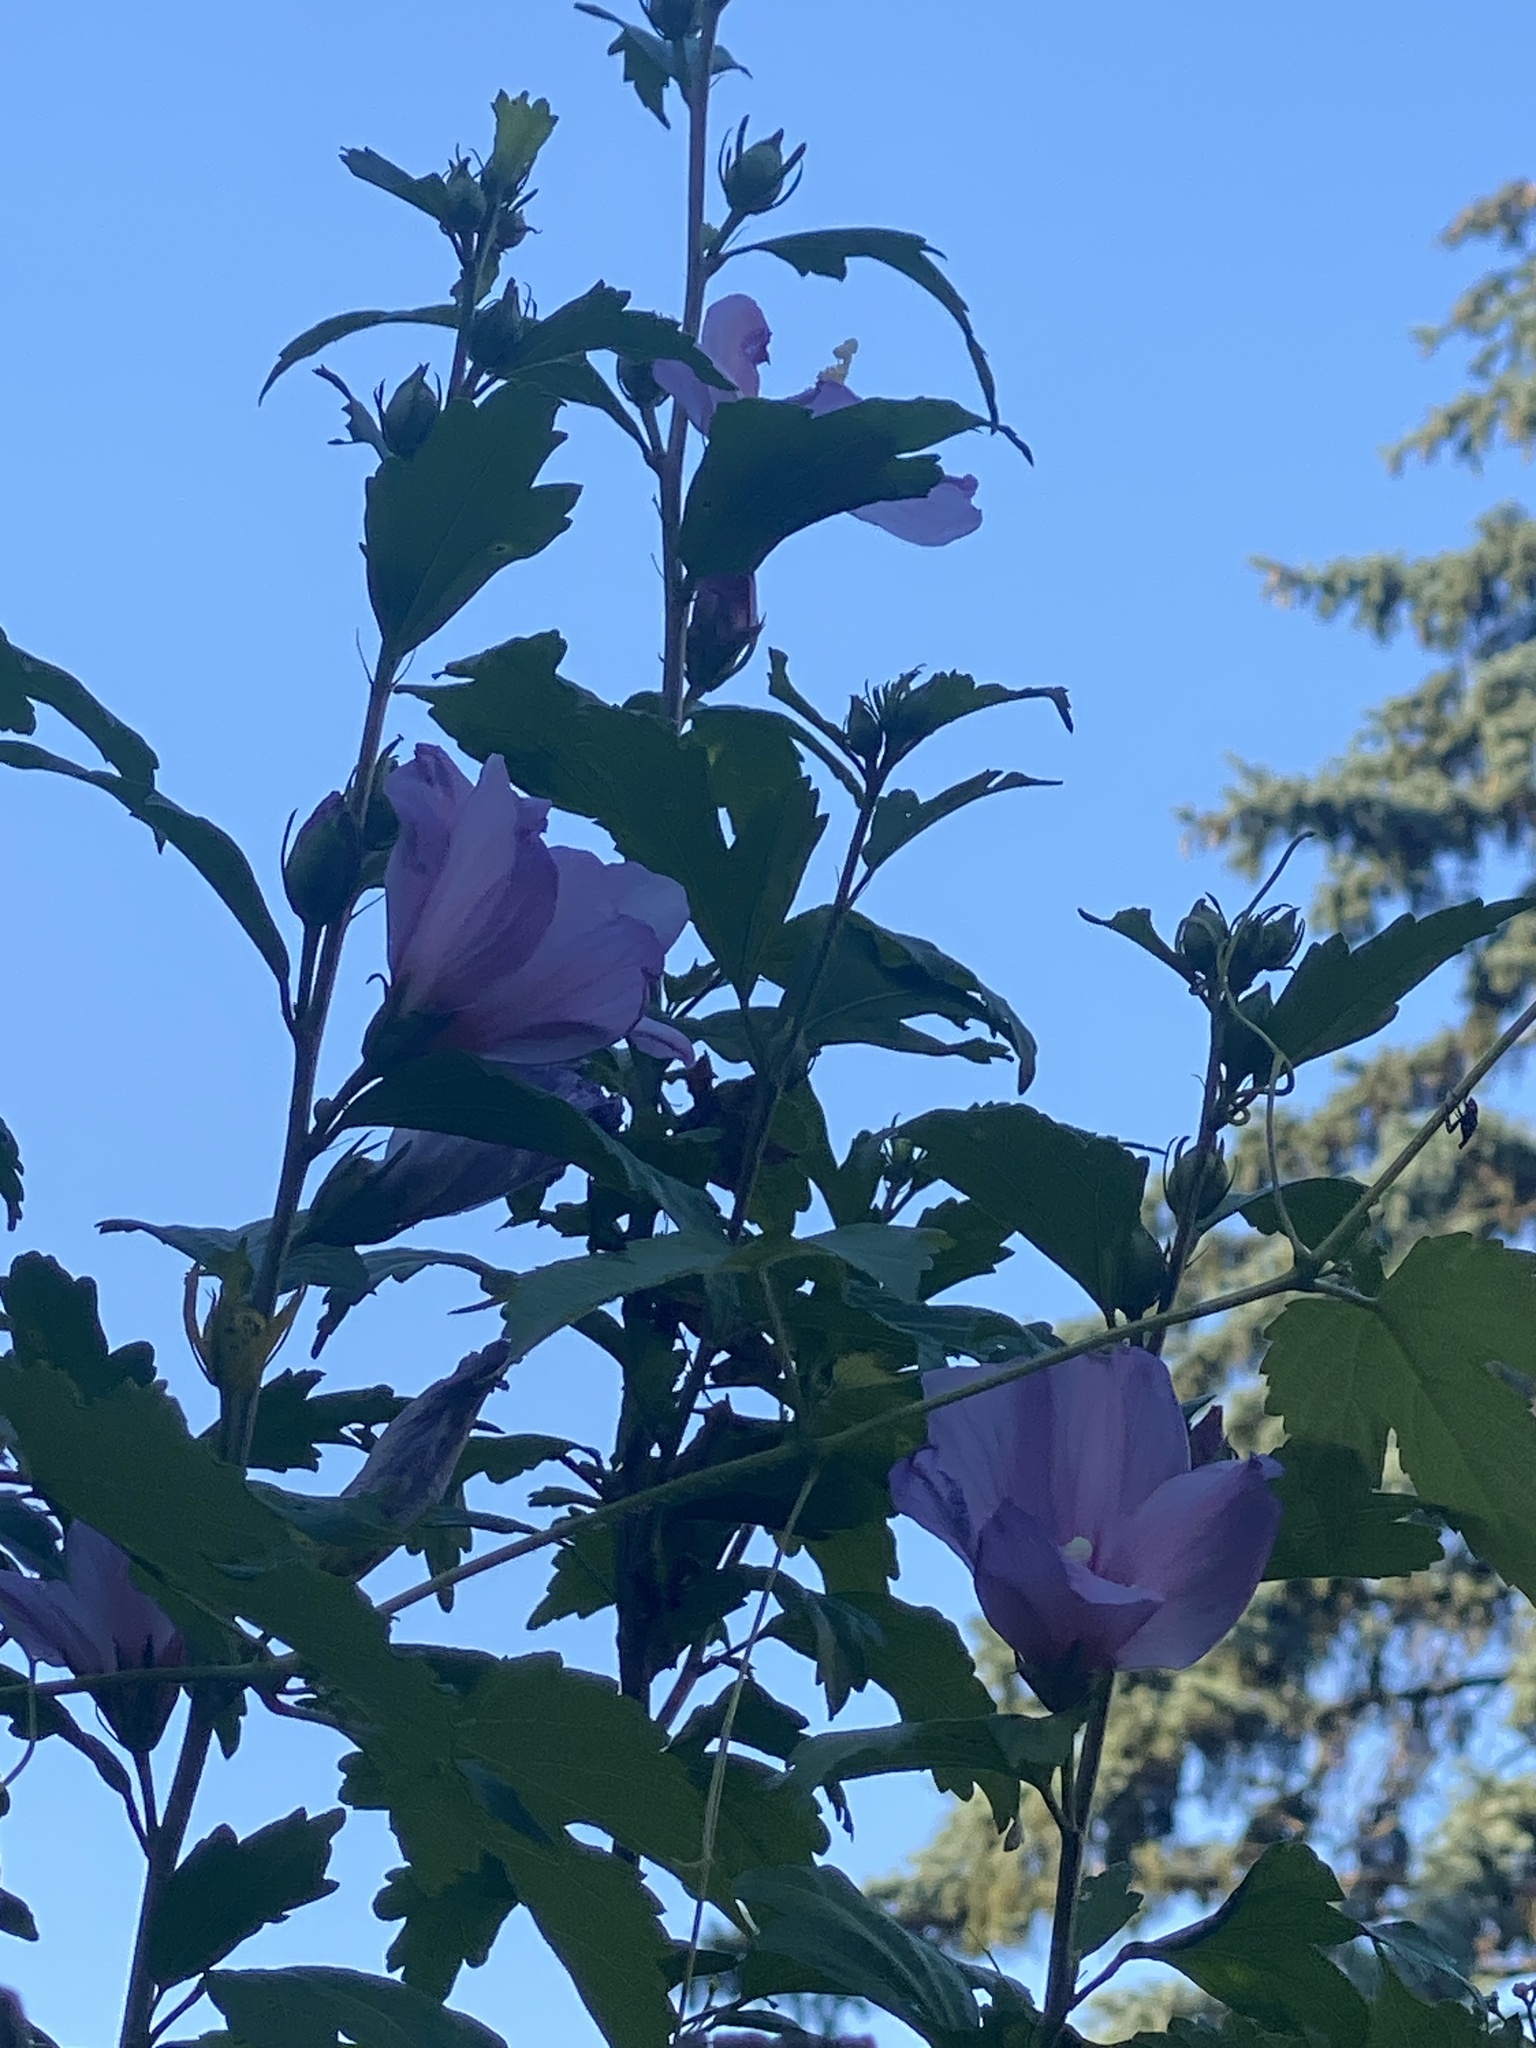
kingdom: Plantae
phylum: Tracheophyta
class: Magnoliopsida
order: Malvales
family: Malvaceae
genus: Hibiscus
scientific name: Hibiscus syriacus
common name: Syrian ketmia
